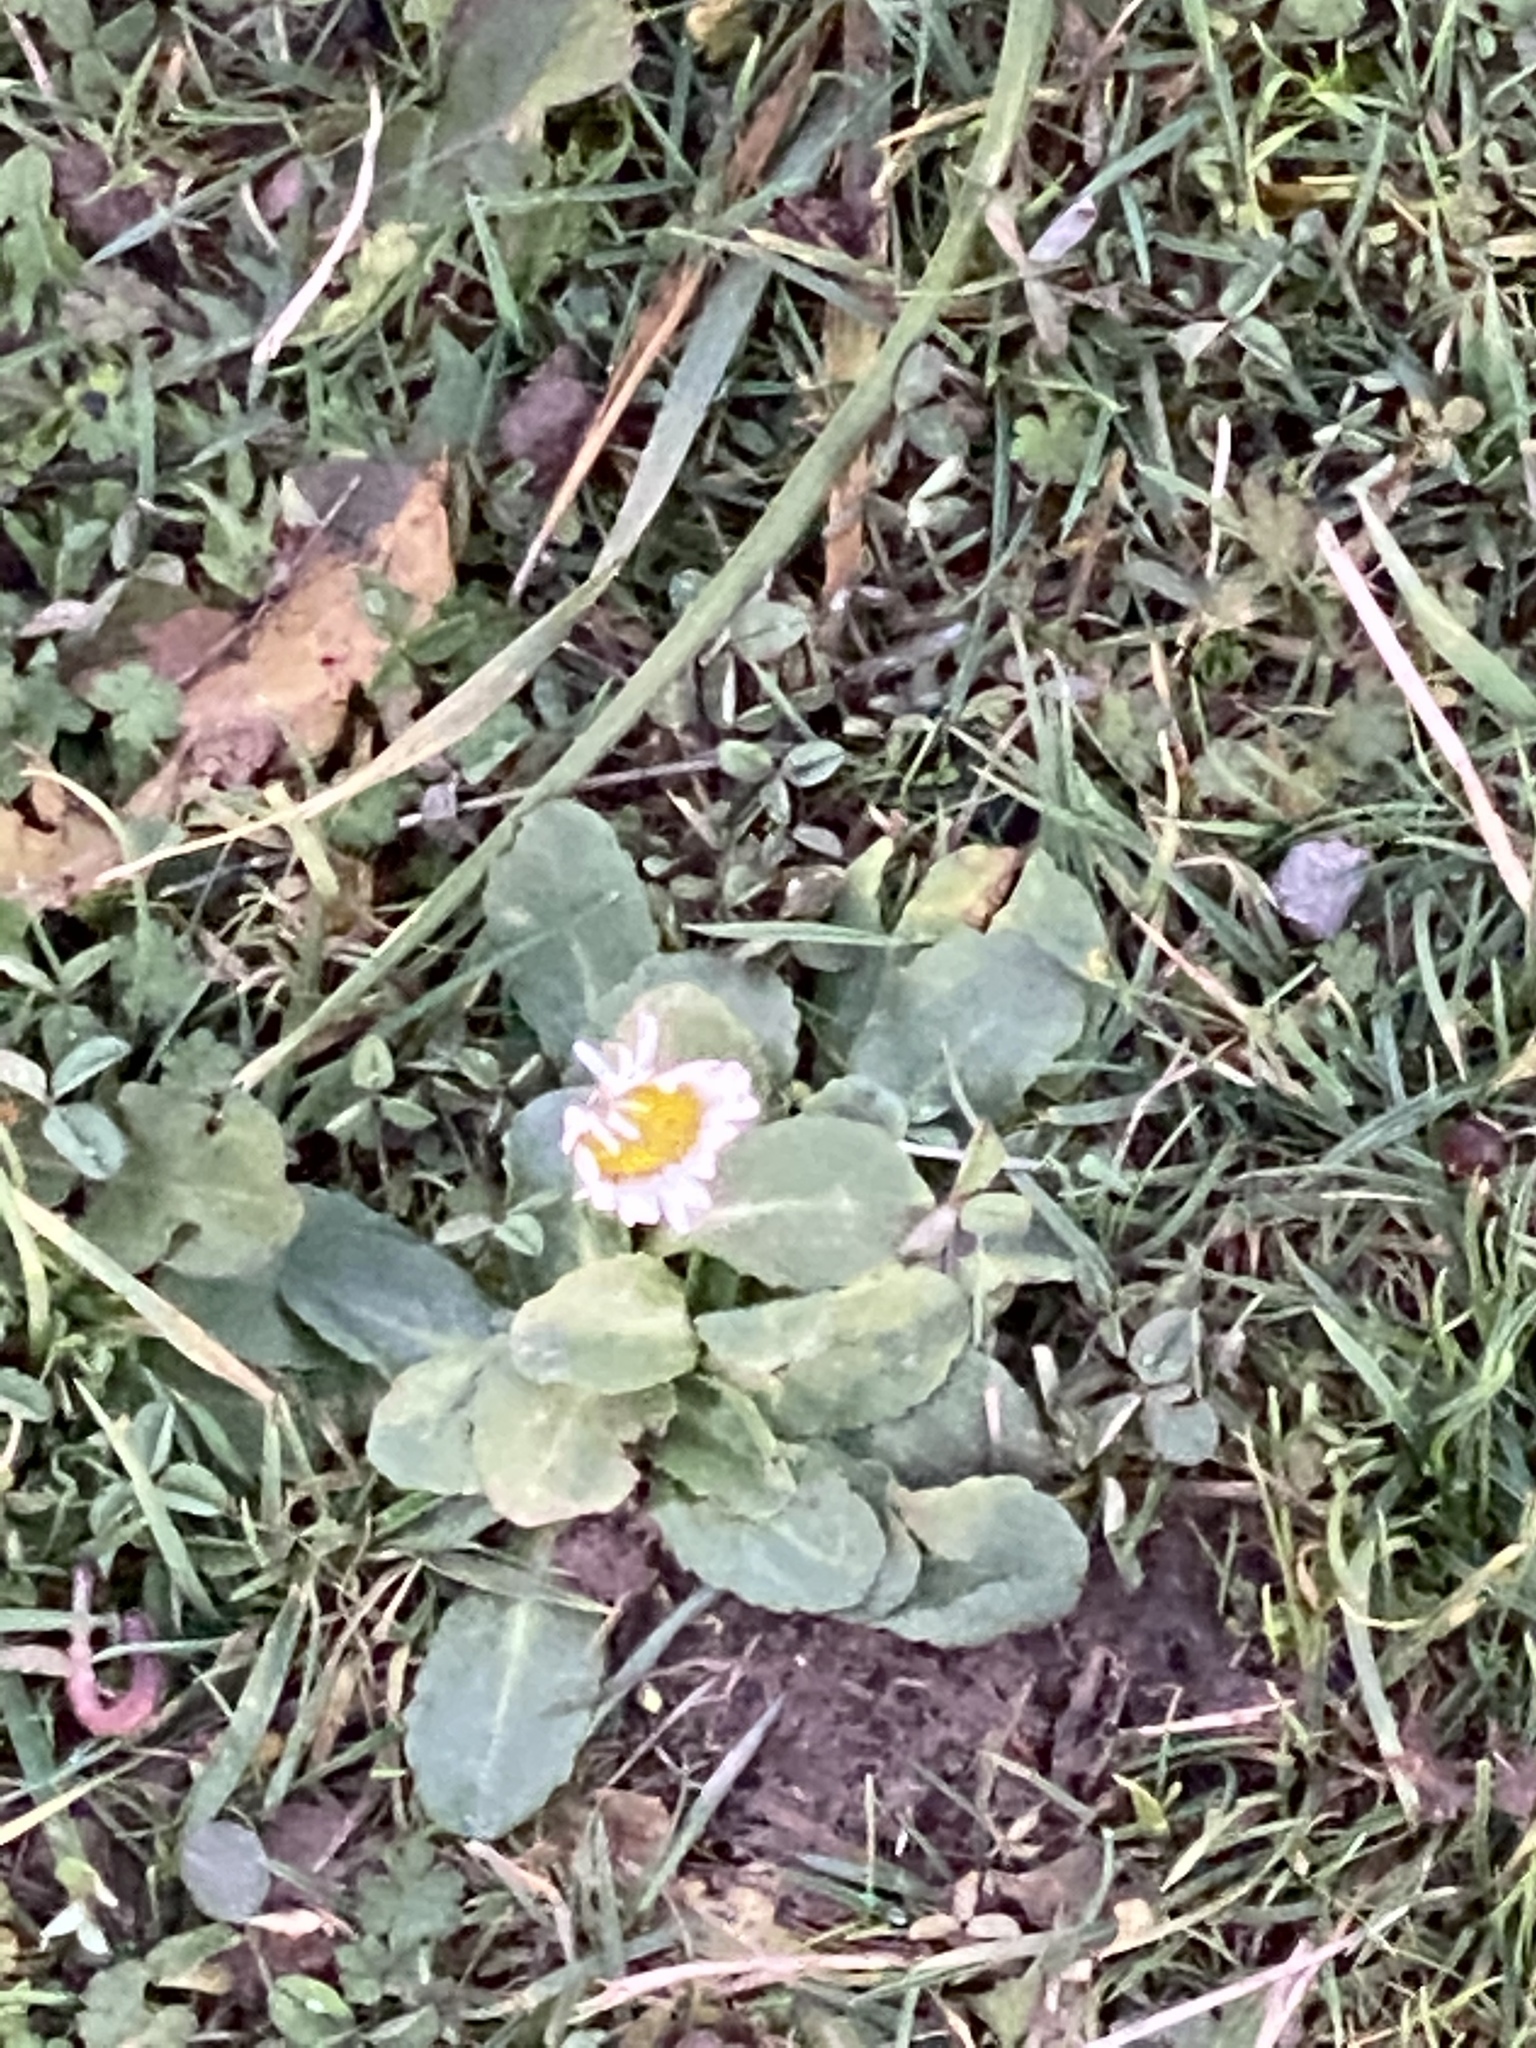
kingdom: Plantae
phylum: Tracheophyta
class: Magnoliopsida
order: Asterales
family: Asteraceae
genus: Bellis
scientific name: Bellis perennis
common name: Lawndaisy
